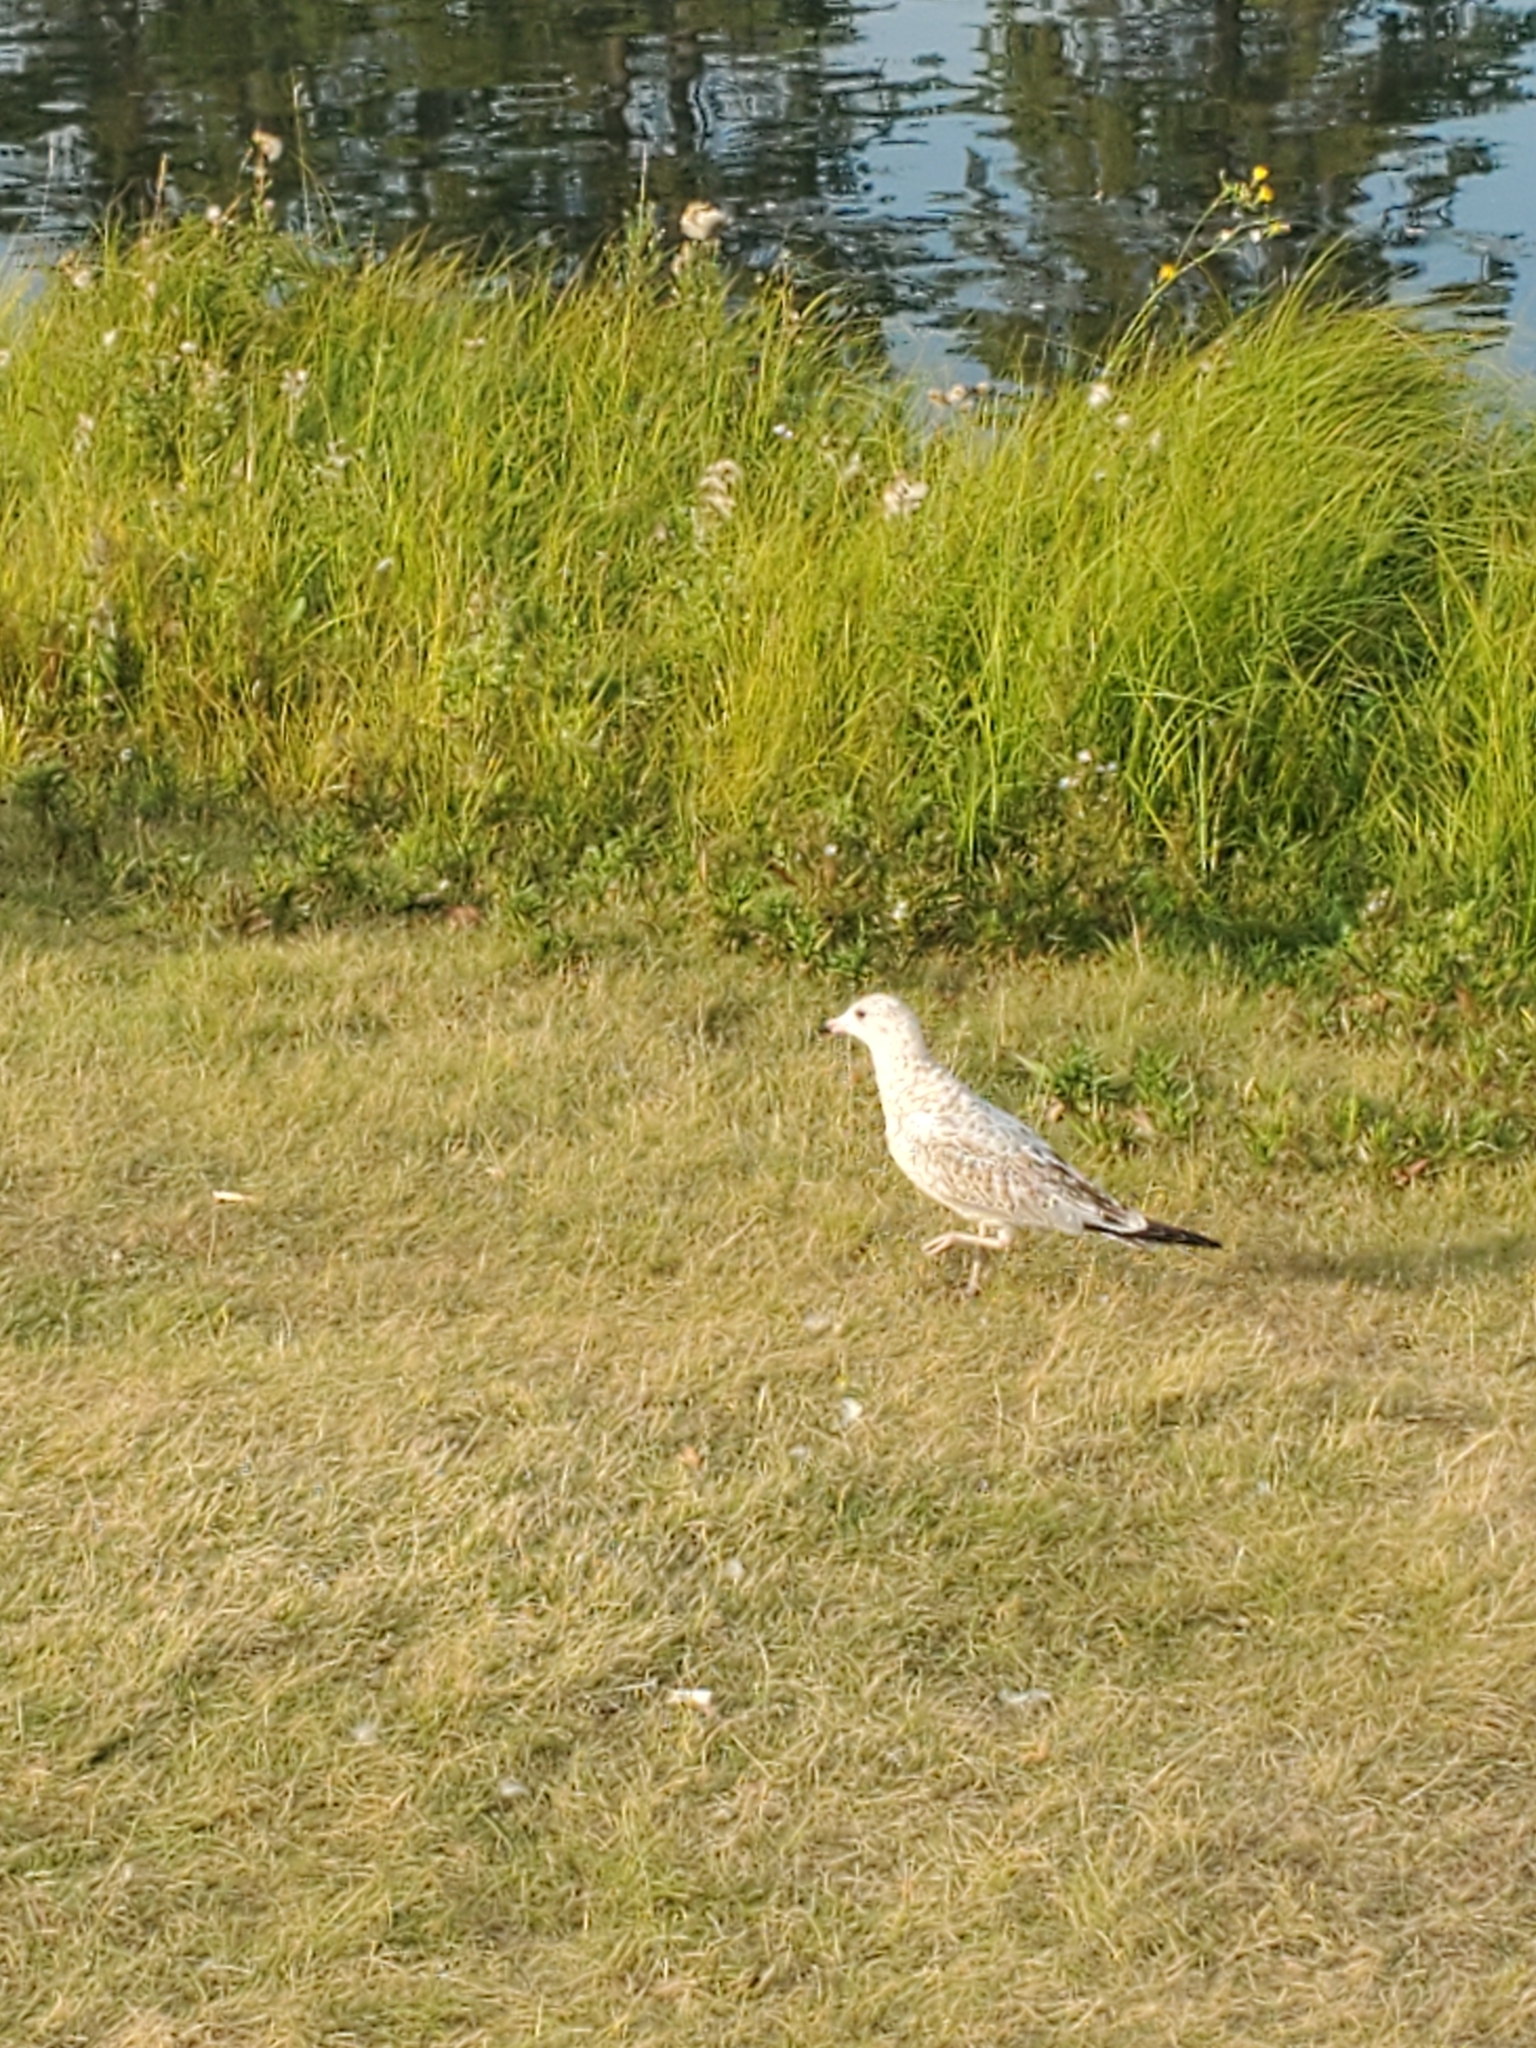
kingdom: Animalia
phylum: Chordata
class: Aves
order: Charadriiformes
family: Laridae
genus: Larus
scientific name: Larus delawarensis
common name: Ring-billed gull
